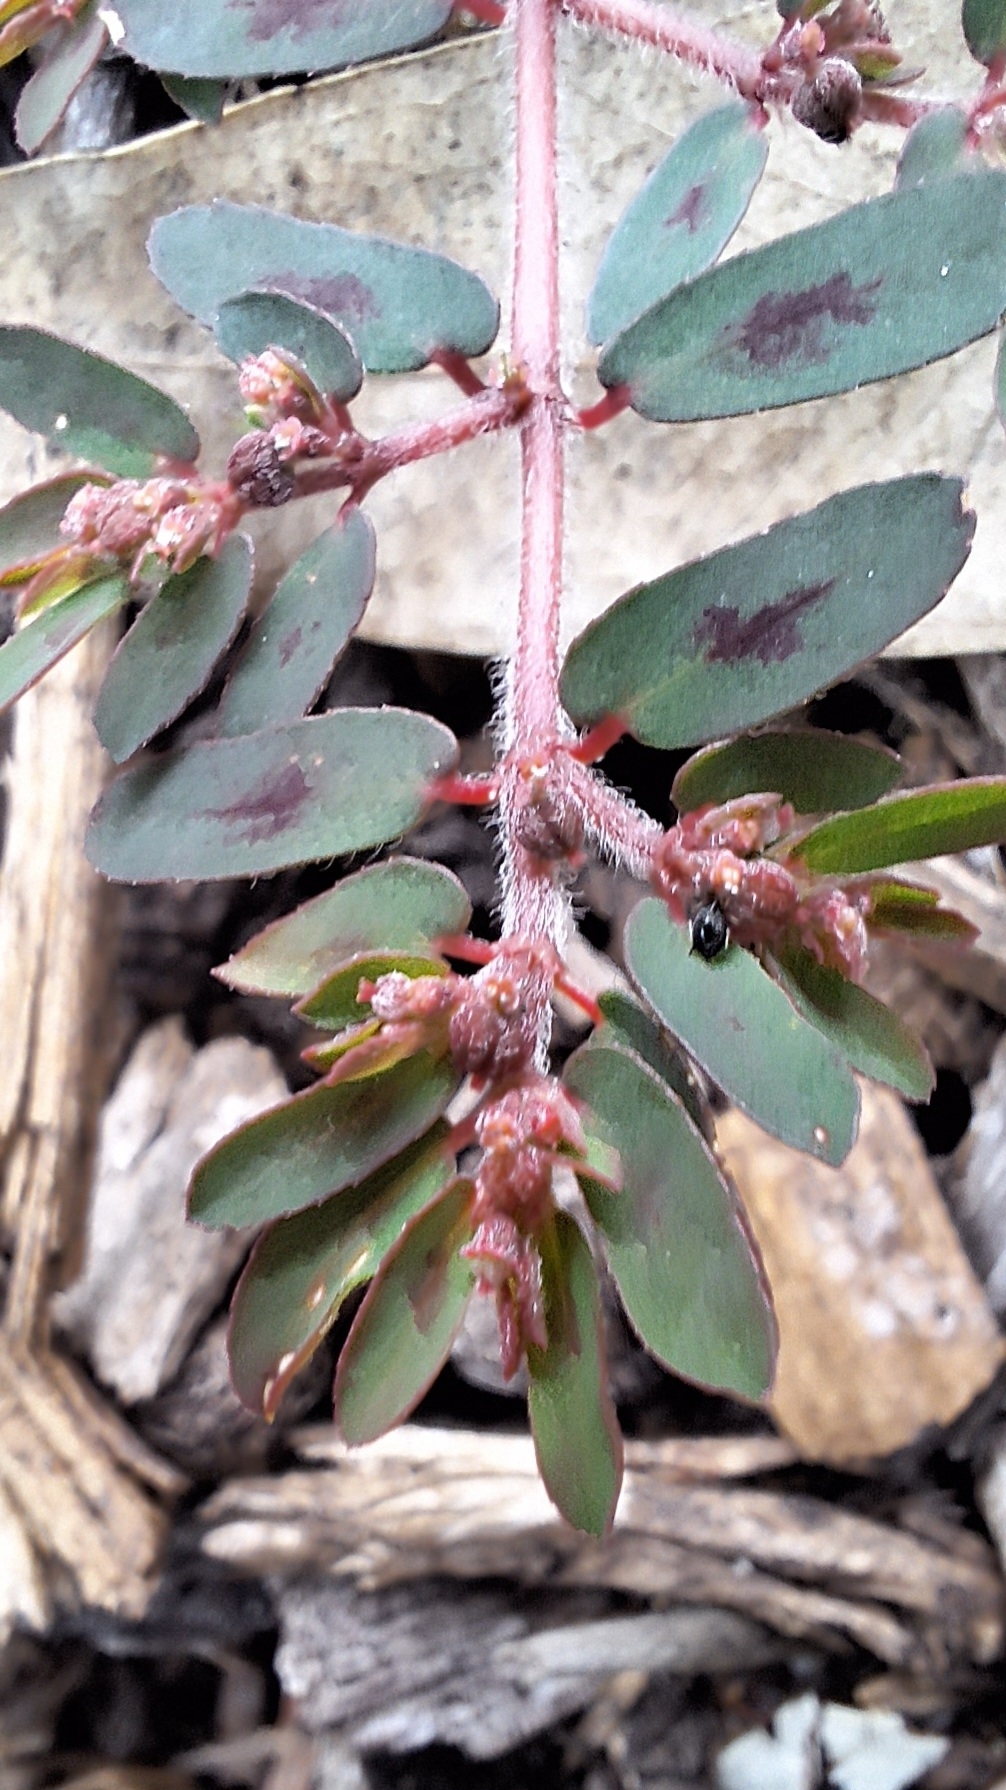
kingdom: Plantae
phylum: Tracheophyta
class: Magnoliopsida
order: Malpighiales
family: Euphorbiaceae
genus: Euphorbia
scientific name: Euphorbia maculata
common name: Spotted spurge
